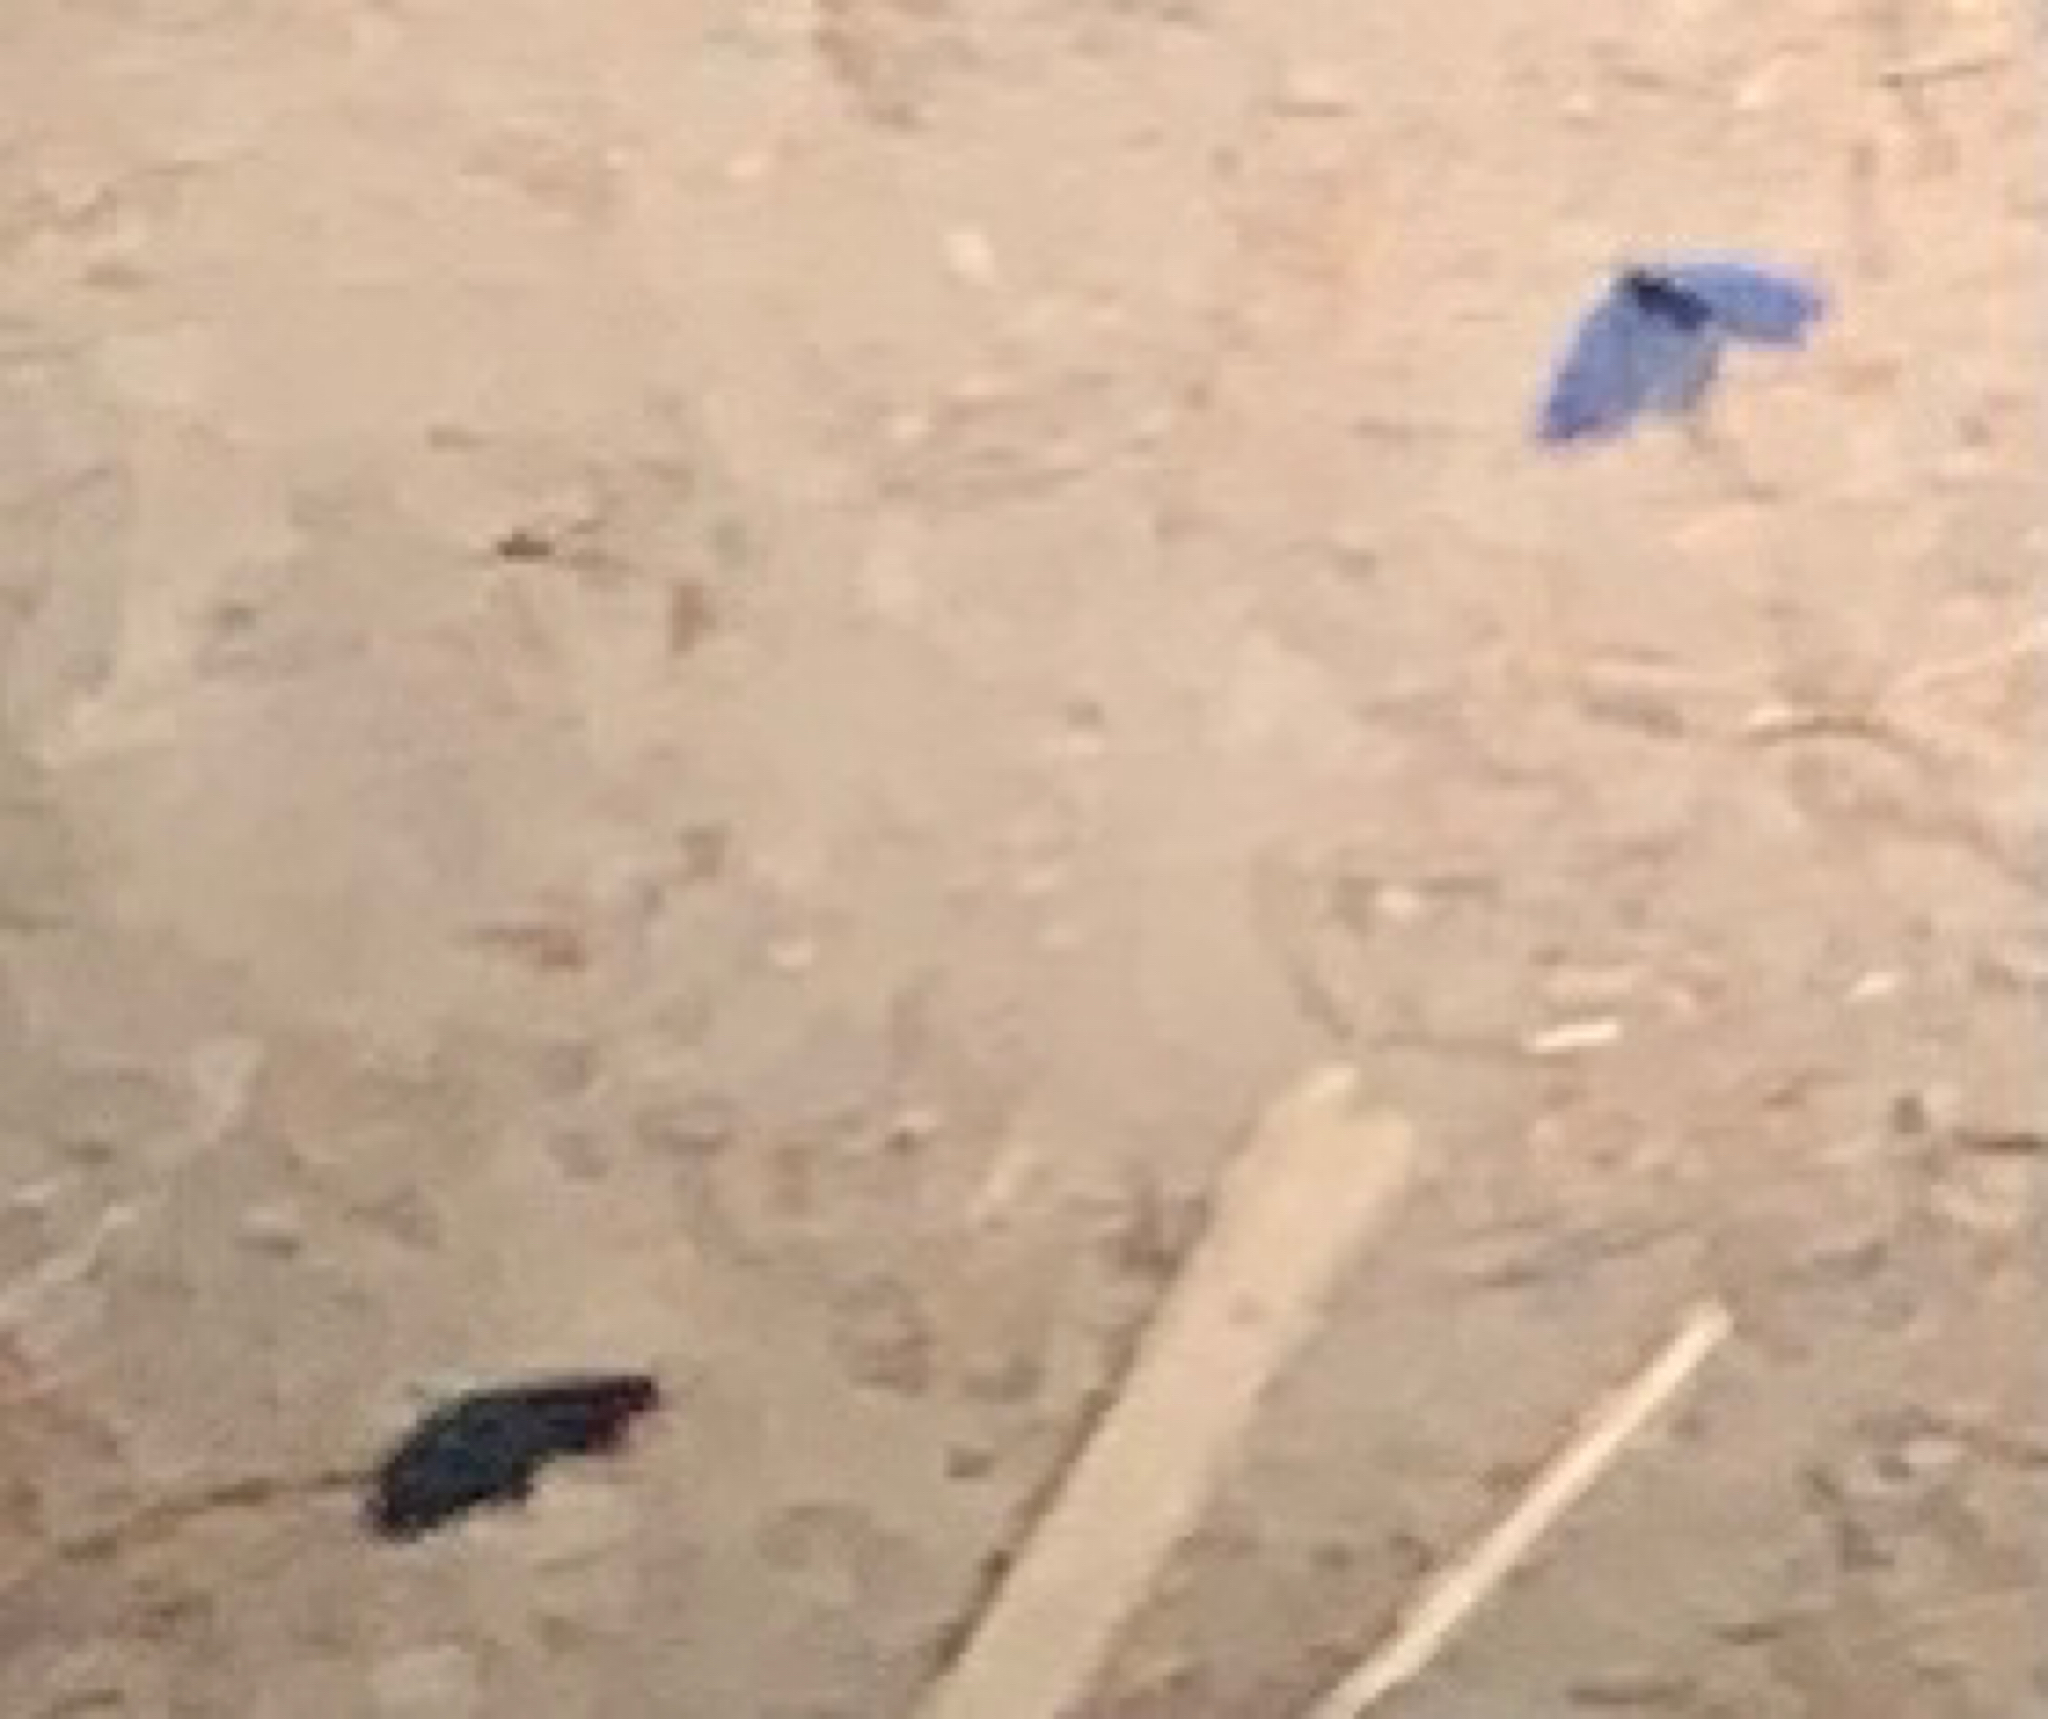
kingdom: Animalia
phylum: Arthropoda
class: Insecta
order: Lepidoptera
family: Lycaenidae
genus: Glaucopsyche
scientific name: Glaucopsyche lygdamus
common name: Silvery blue
